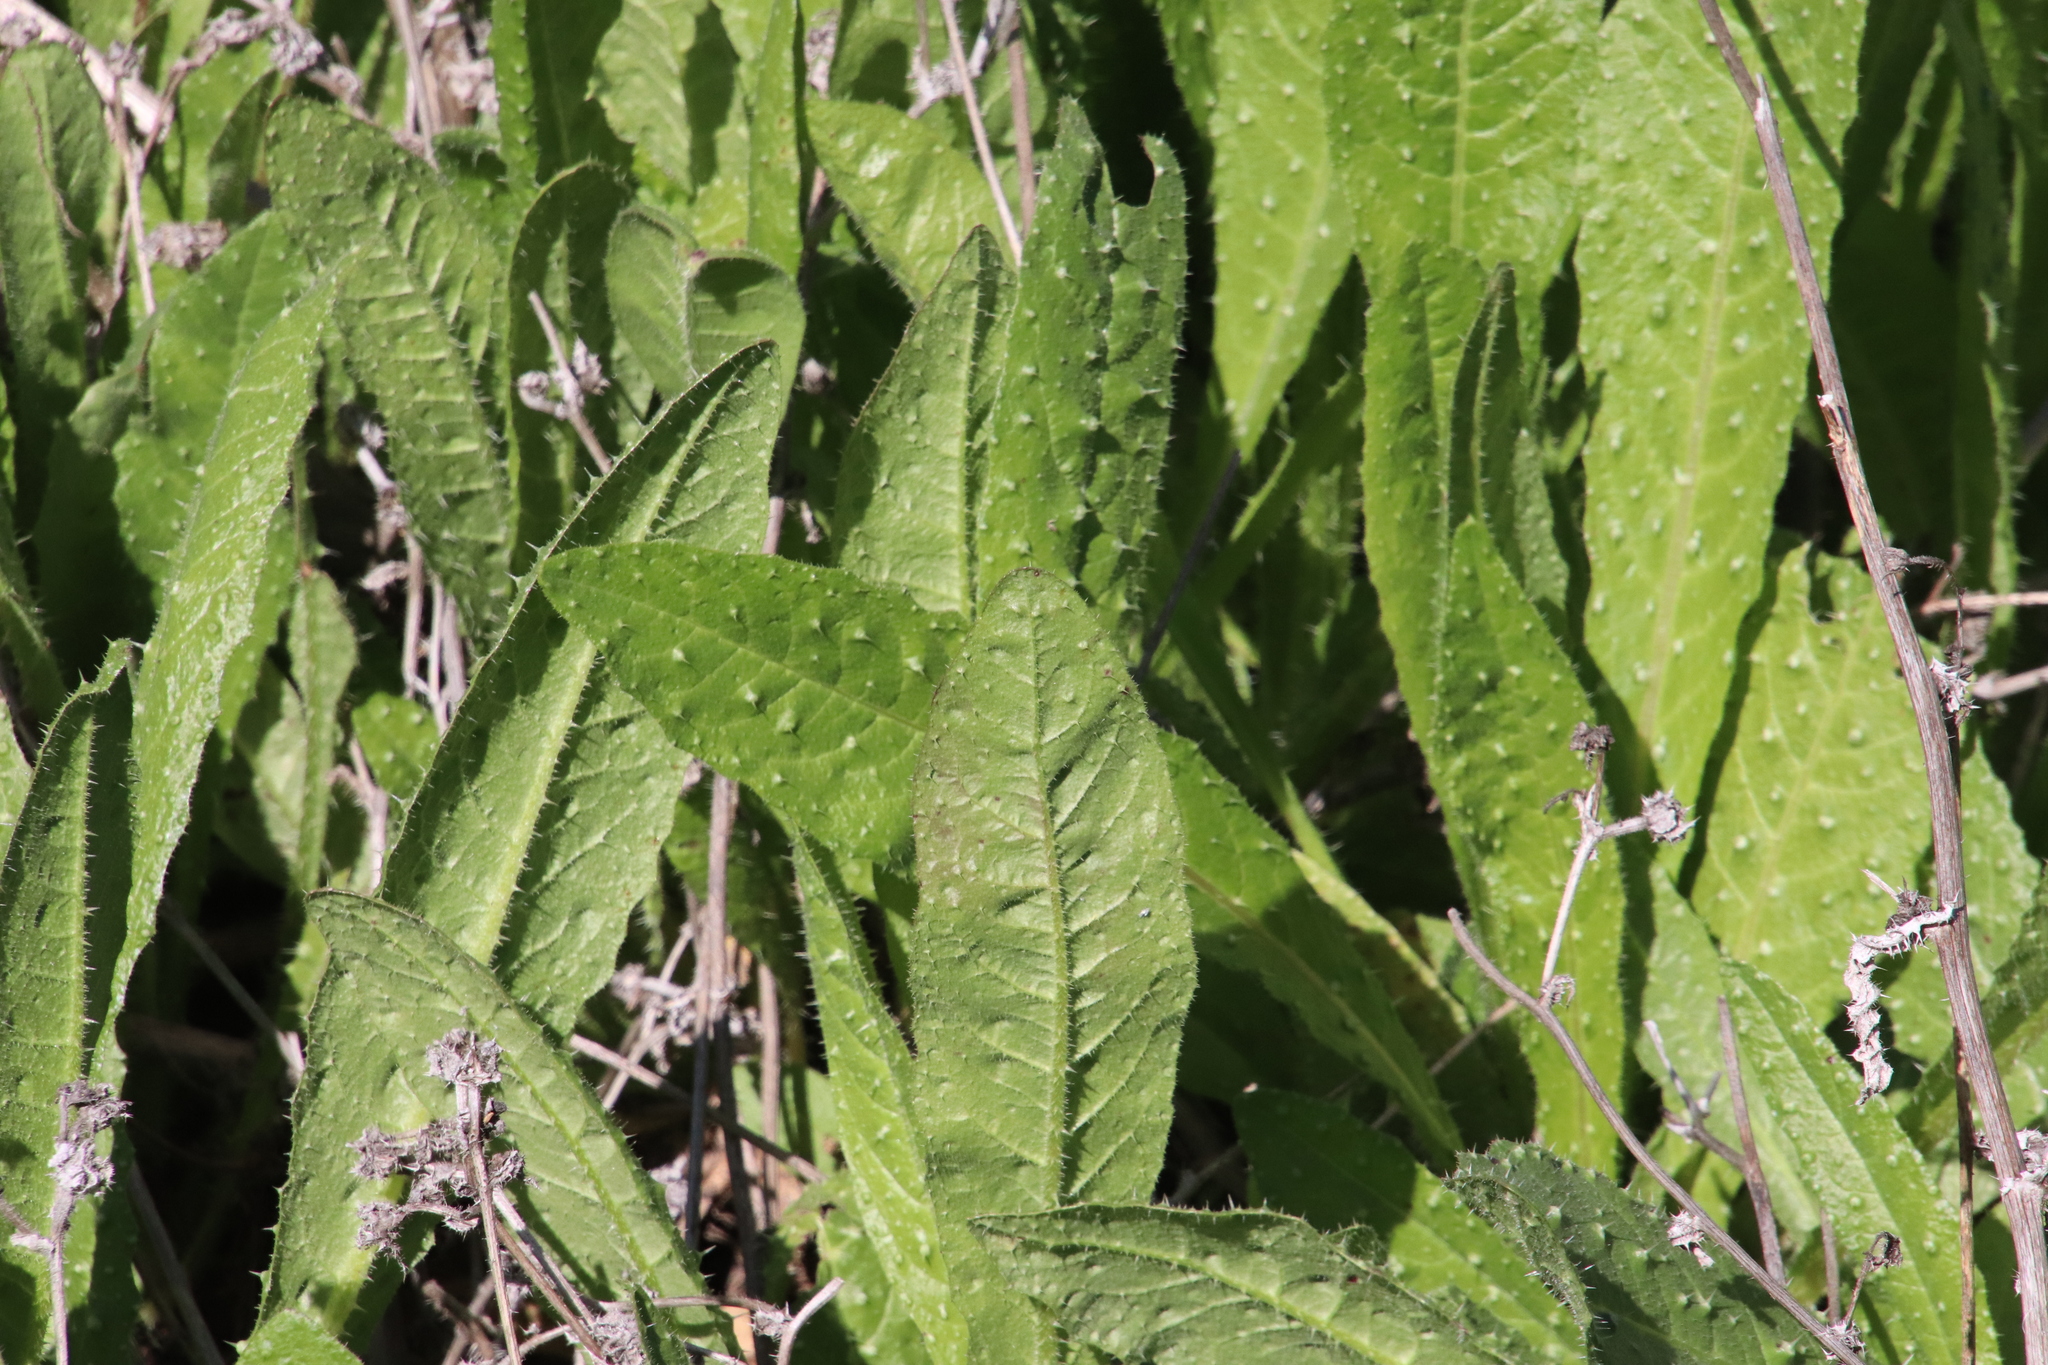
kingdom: Plantae
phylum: Tracheophyta
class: Magnoliopsida
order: Asterales
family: Asteraceae
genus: Helminthotheca
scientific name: Helminthotheca echioides
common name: Ox-tongue
